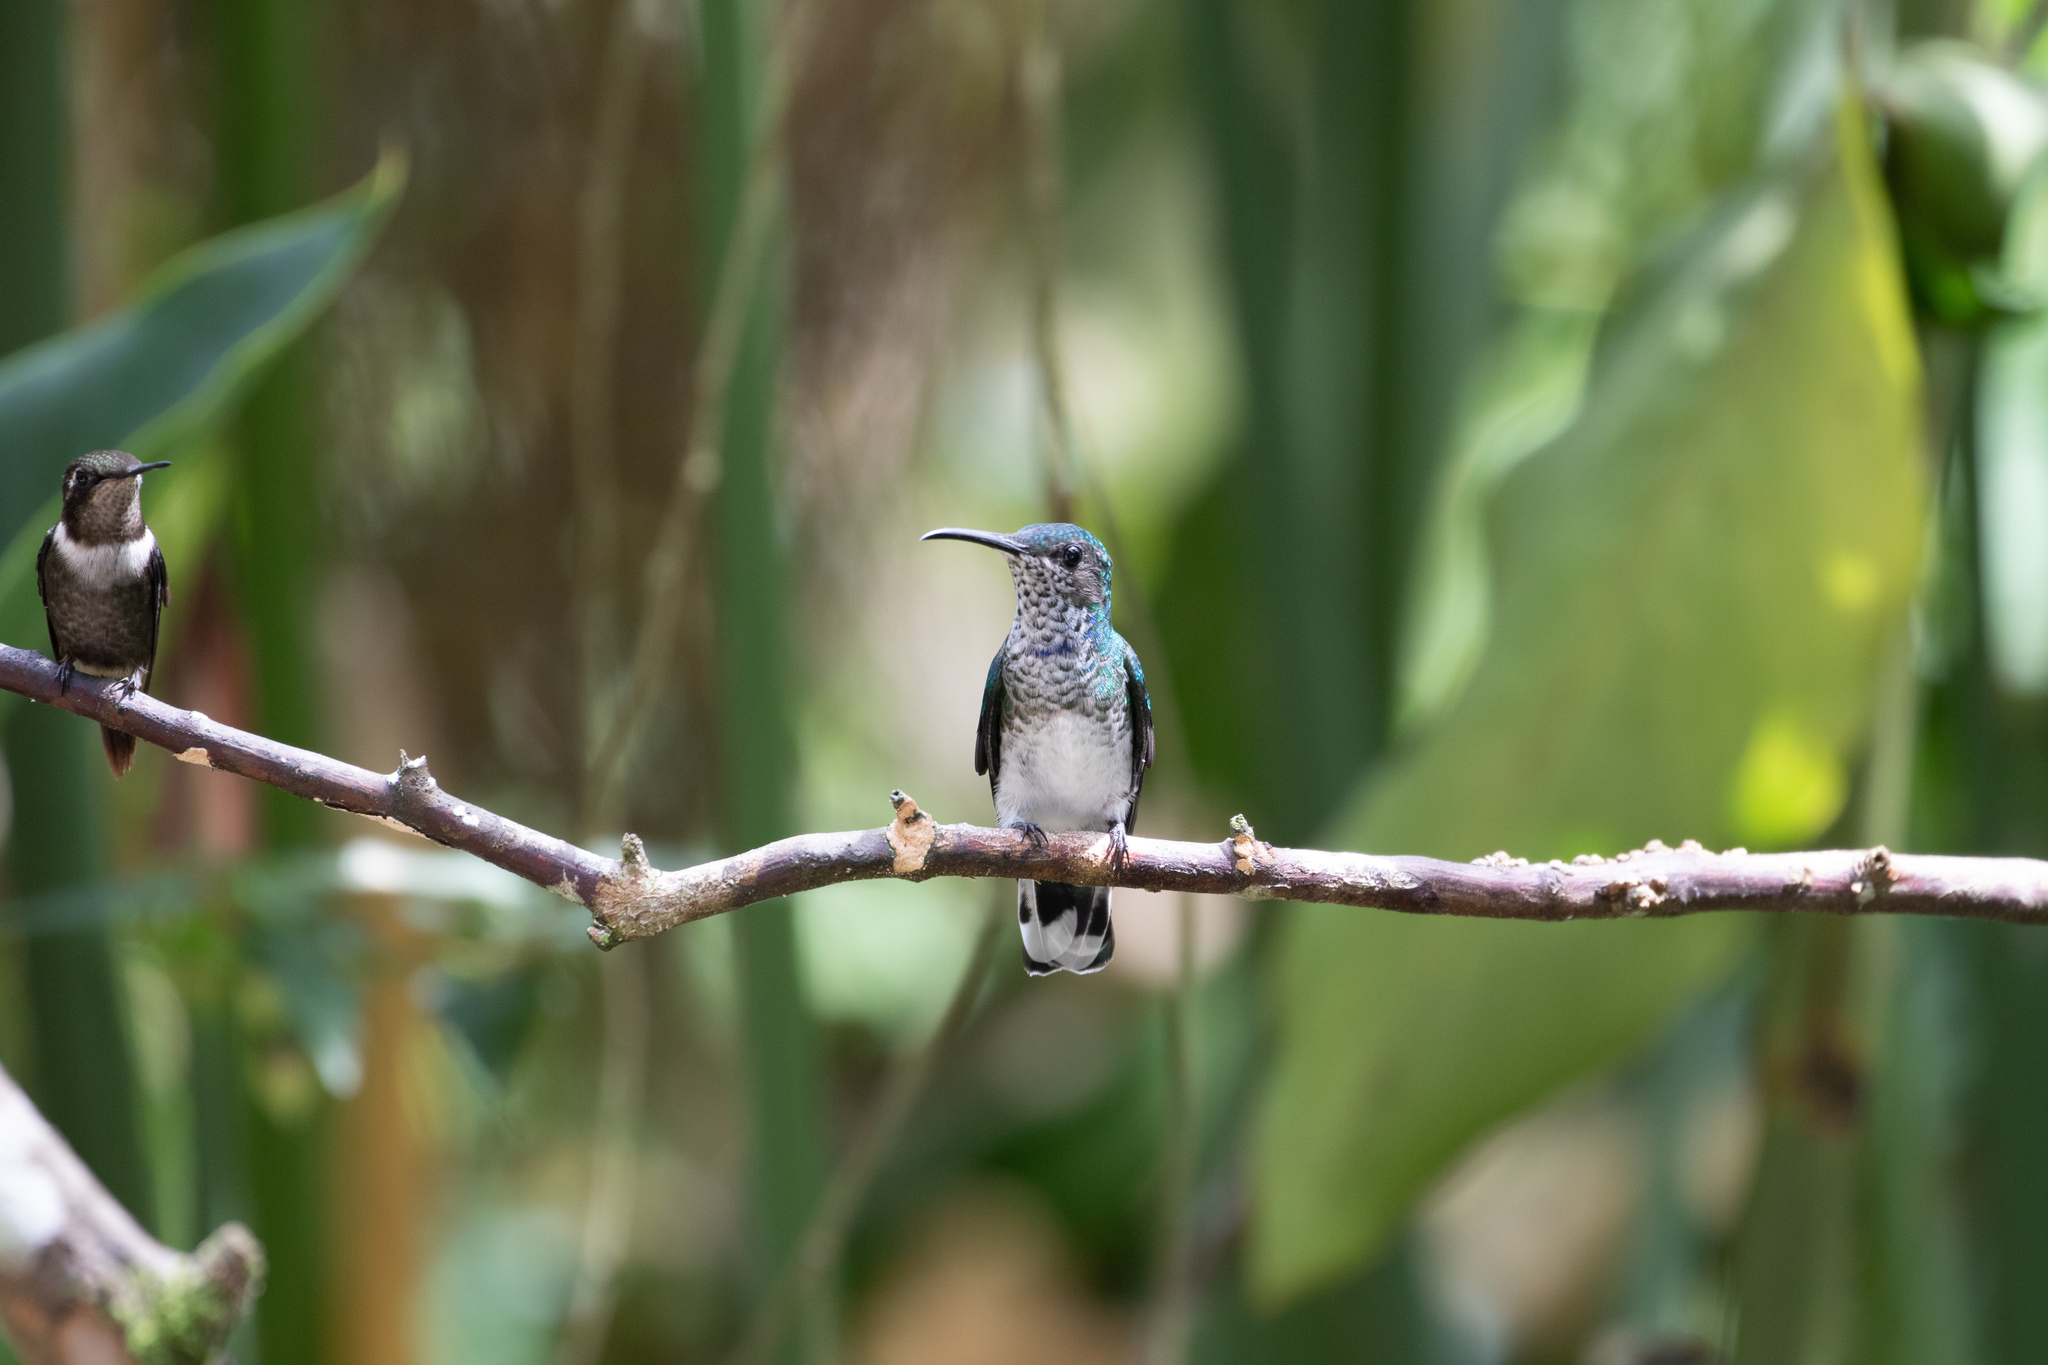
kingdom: Animalia
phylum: Chordata
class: Aves
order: Apodiformes
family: Trochilidae
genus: Florisuga
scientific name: Florisuga mellivora
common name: White-necked jacobin
